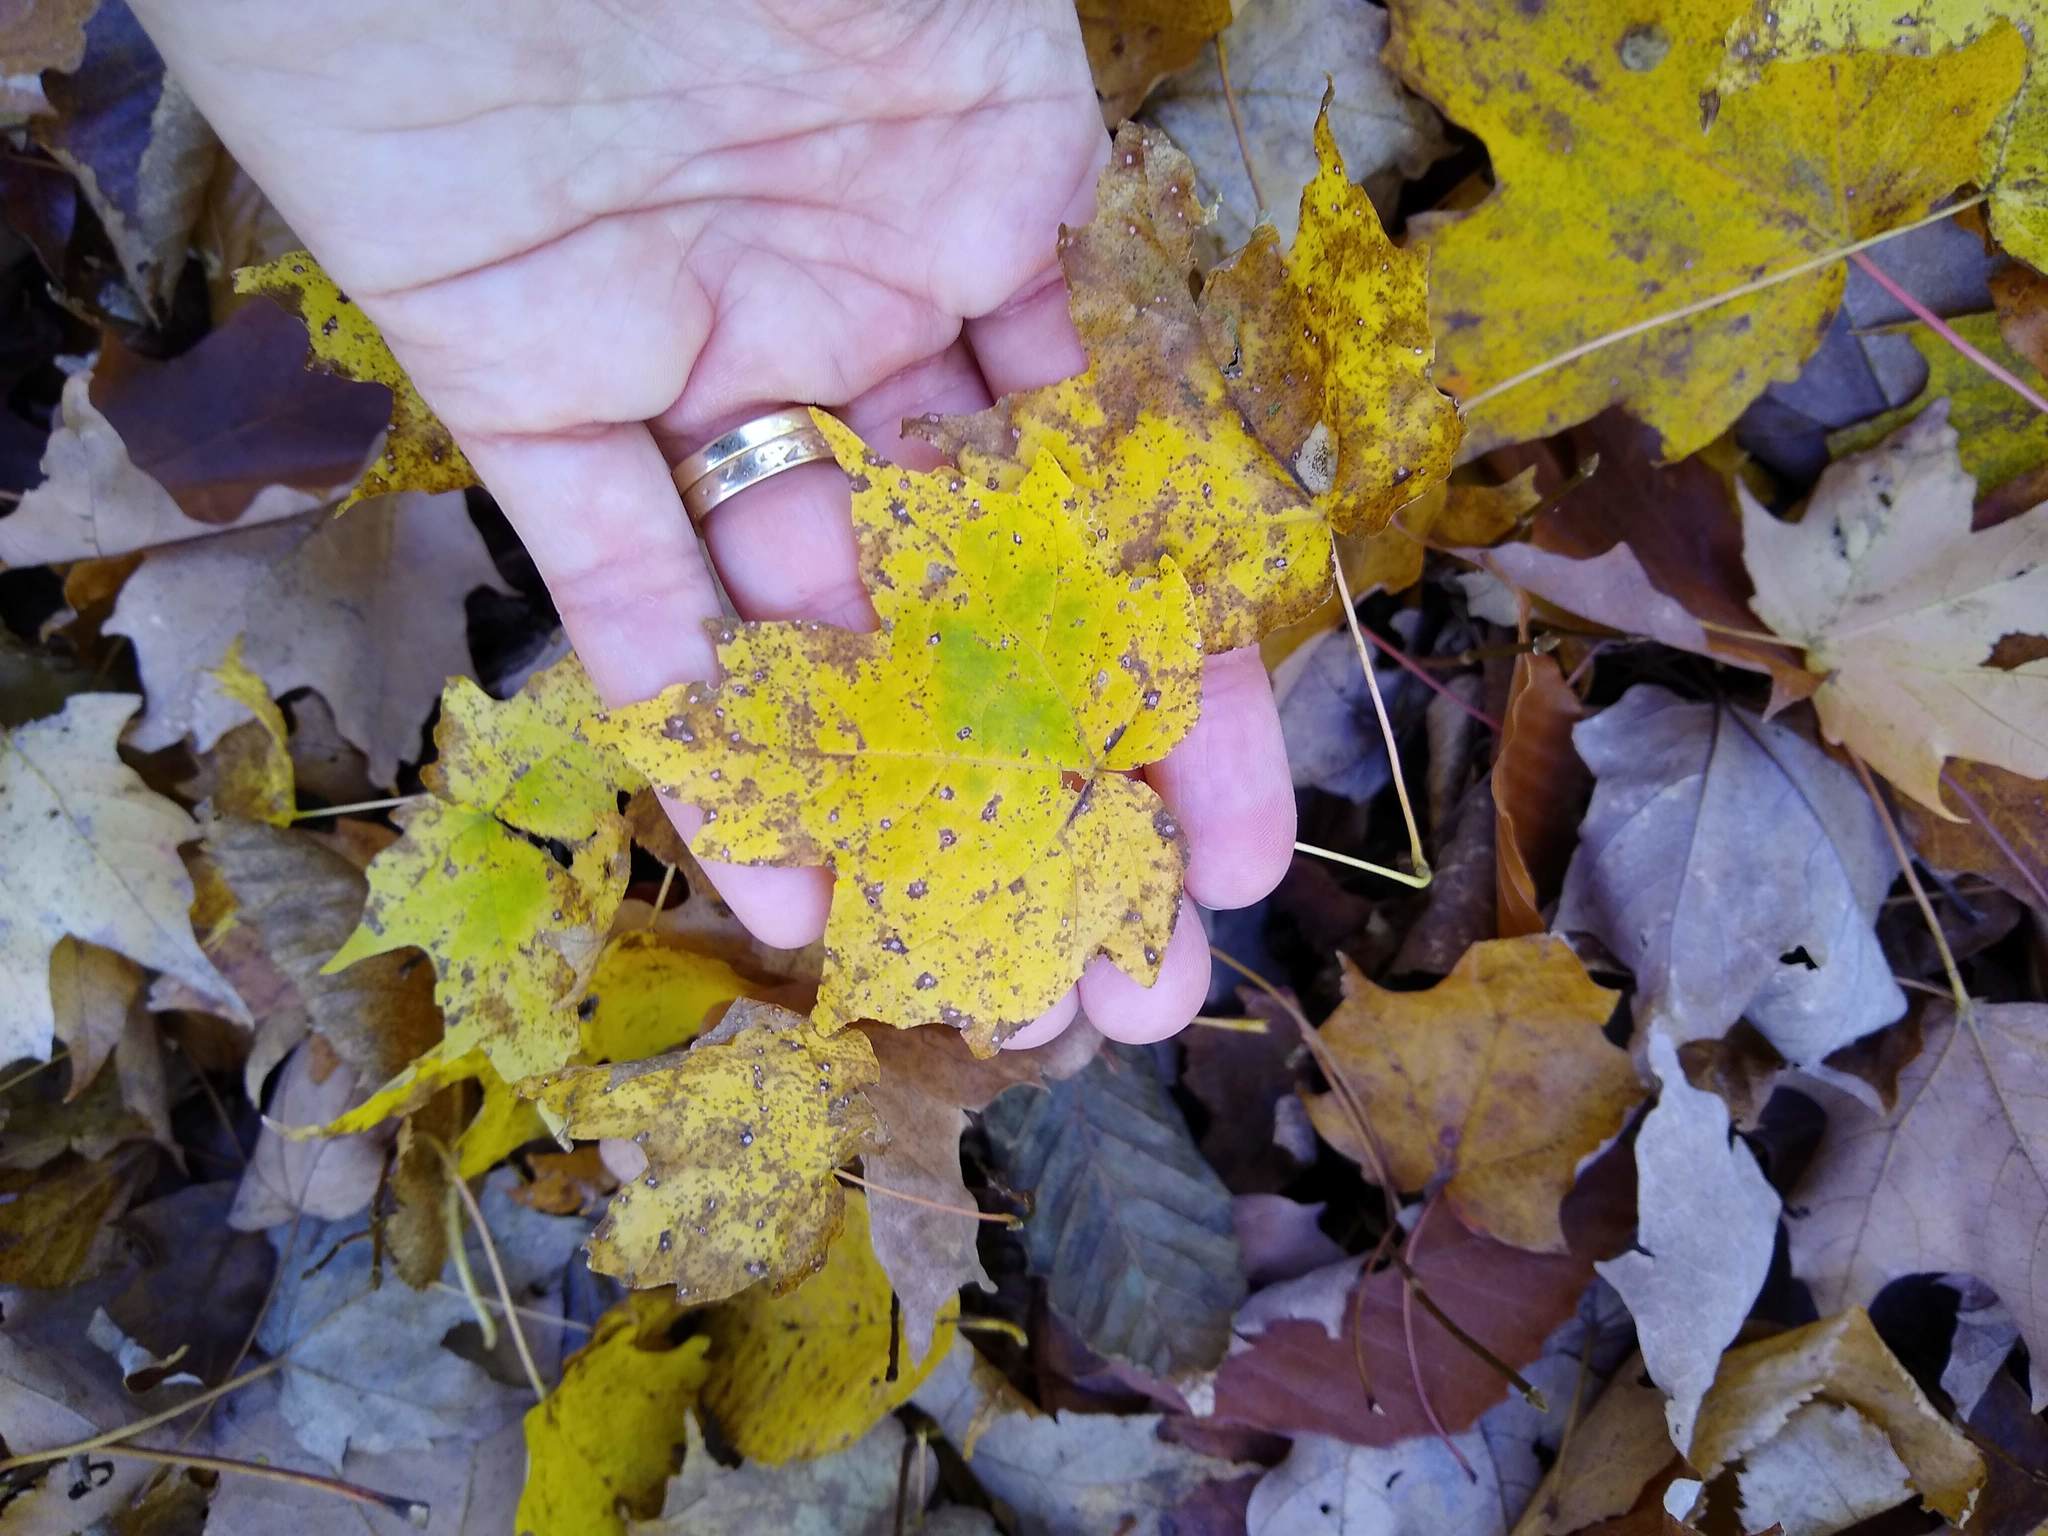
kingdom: Plantae
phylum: Tracheophyta
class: Magnoliopsida
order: Sapindales
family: Sapindaceae
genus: Acer
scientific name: Acer saccharum
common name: Sugar maple
